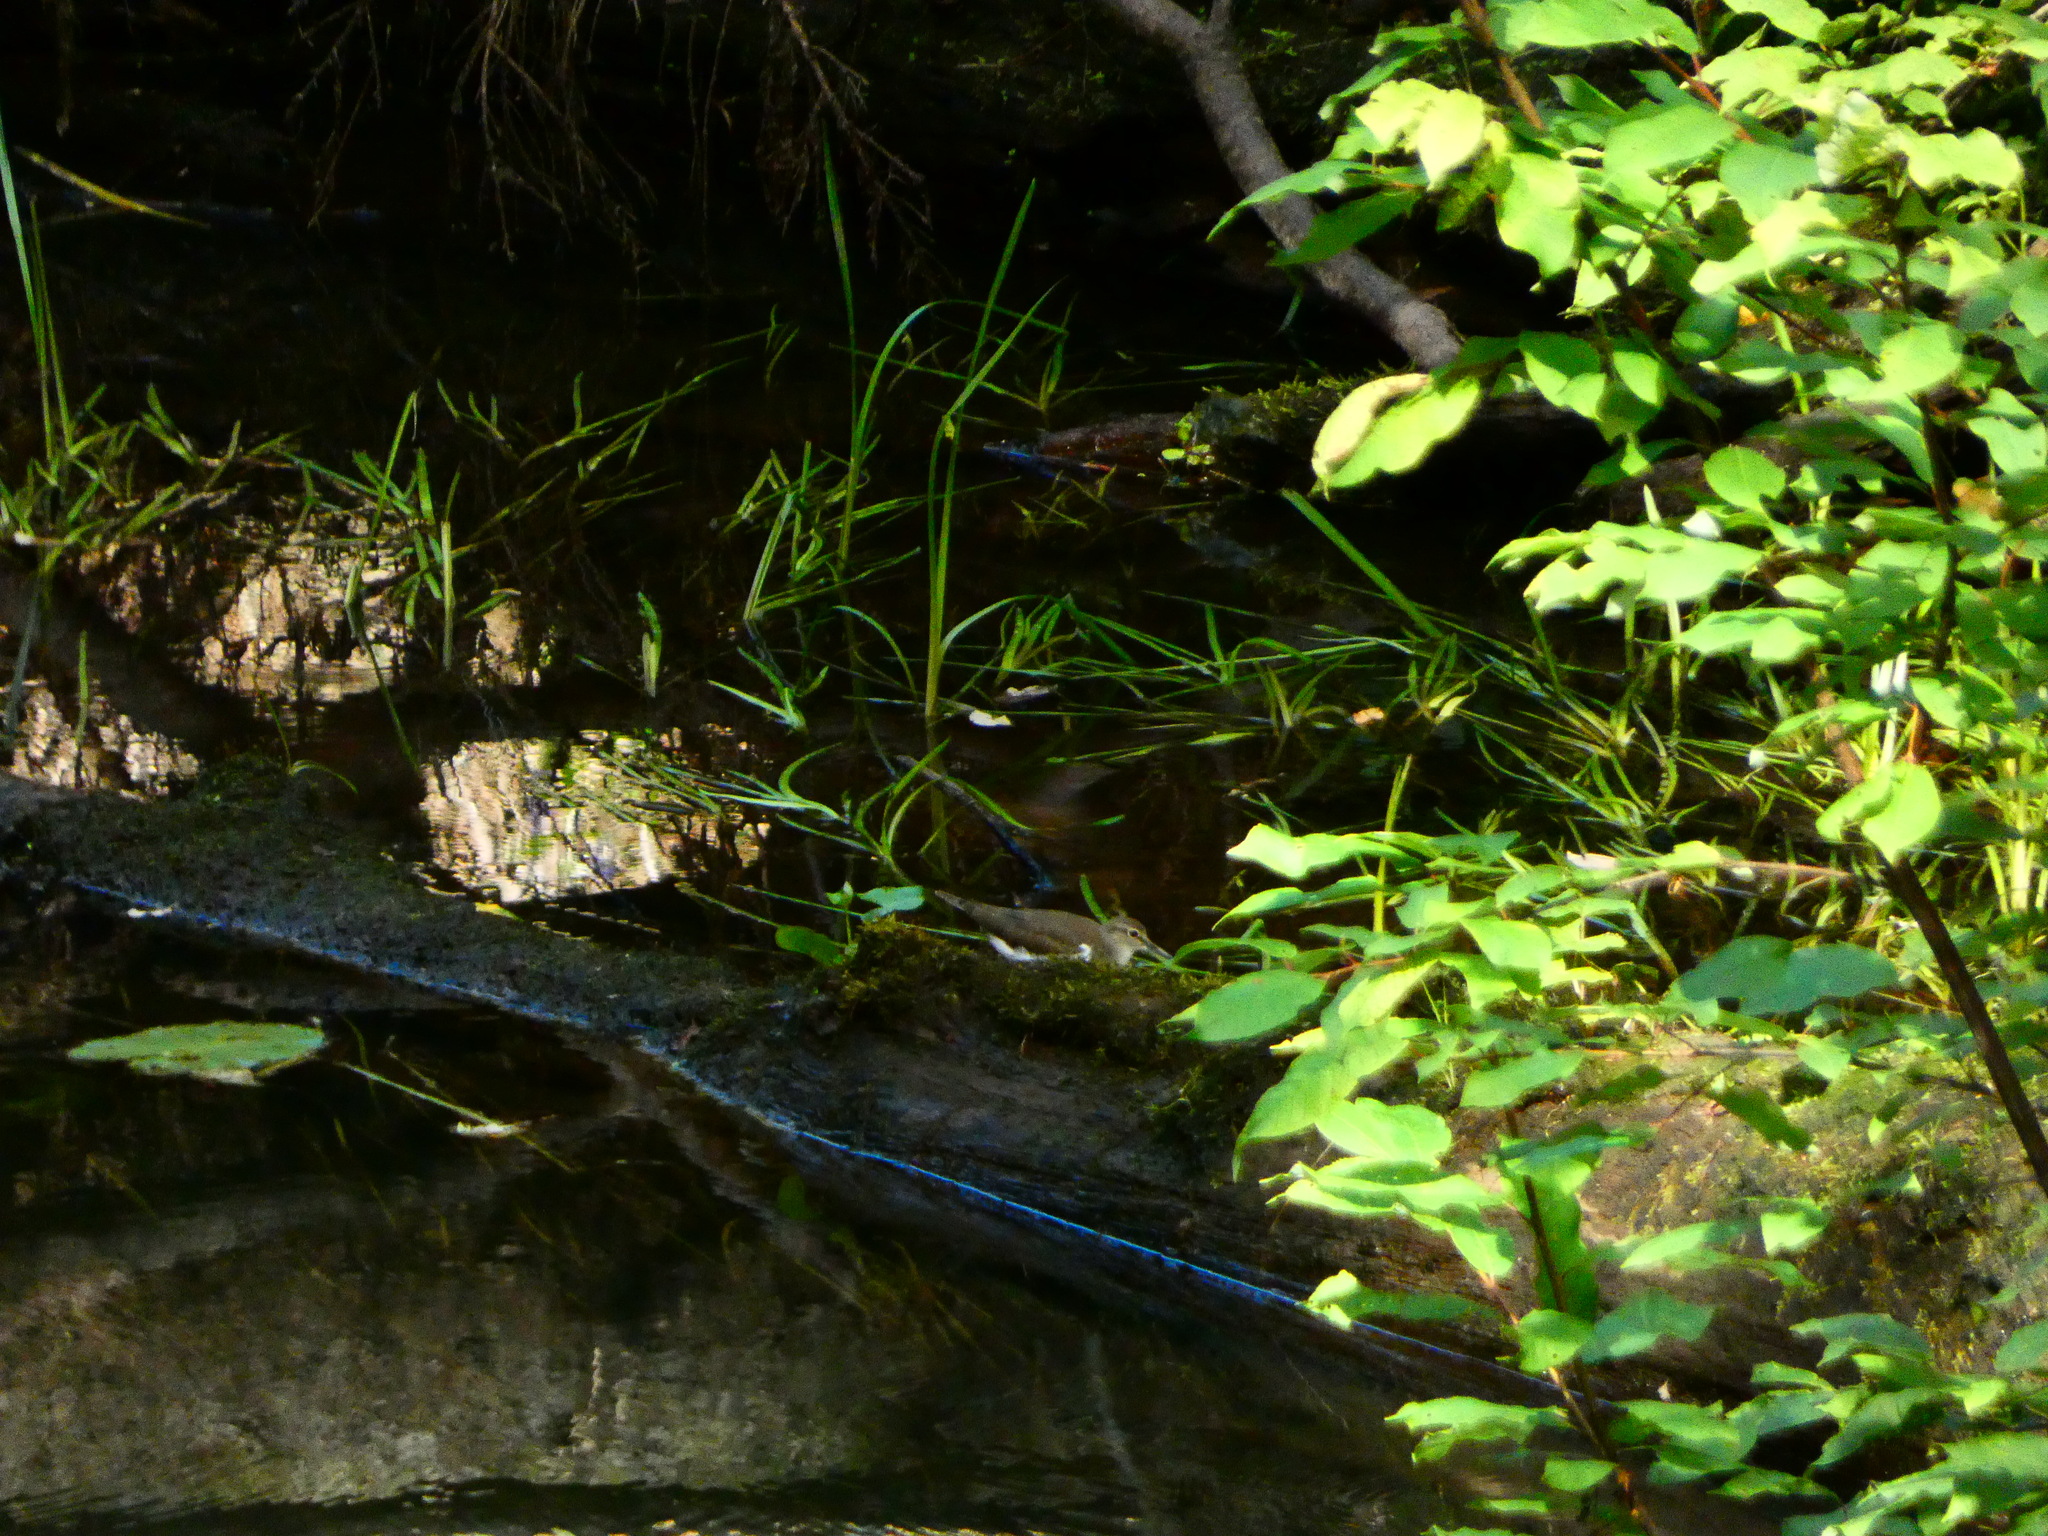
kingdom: Animalia
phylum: Chordata
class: Aves
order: Charadriiformes
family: Scolopacidae
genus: Actitis
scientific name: Actitis hypoleucos
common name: Common sandpiper
